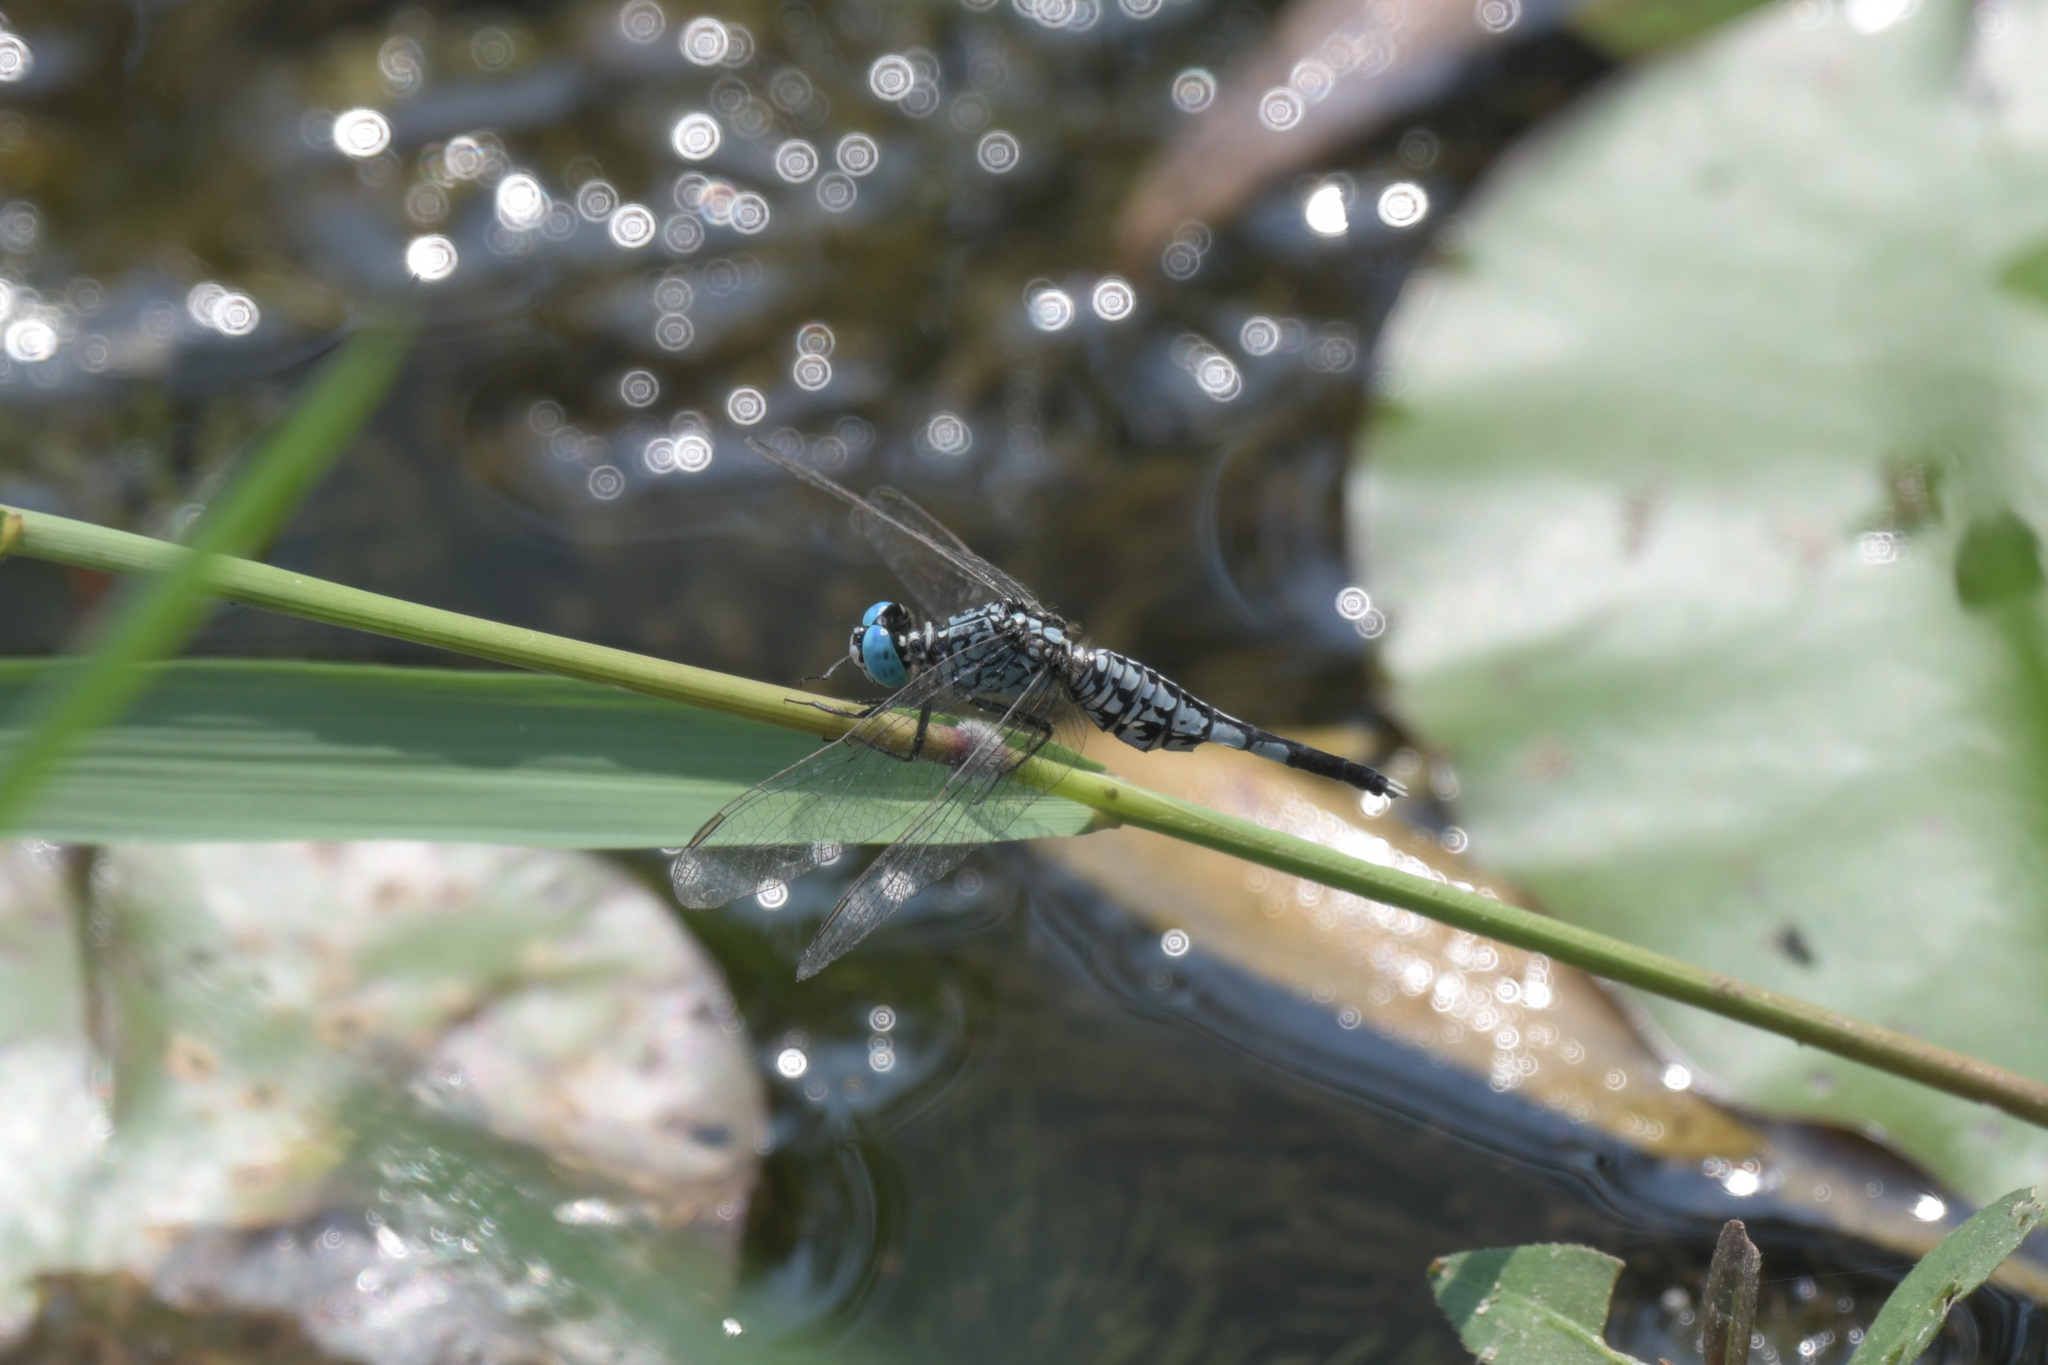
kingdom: Animalia
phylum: Arthropoda
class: Insecta
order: Odonata
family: Libellulidae
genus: Acisoma
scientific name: Acisoma panorpoides
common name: Asian pintail
